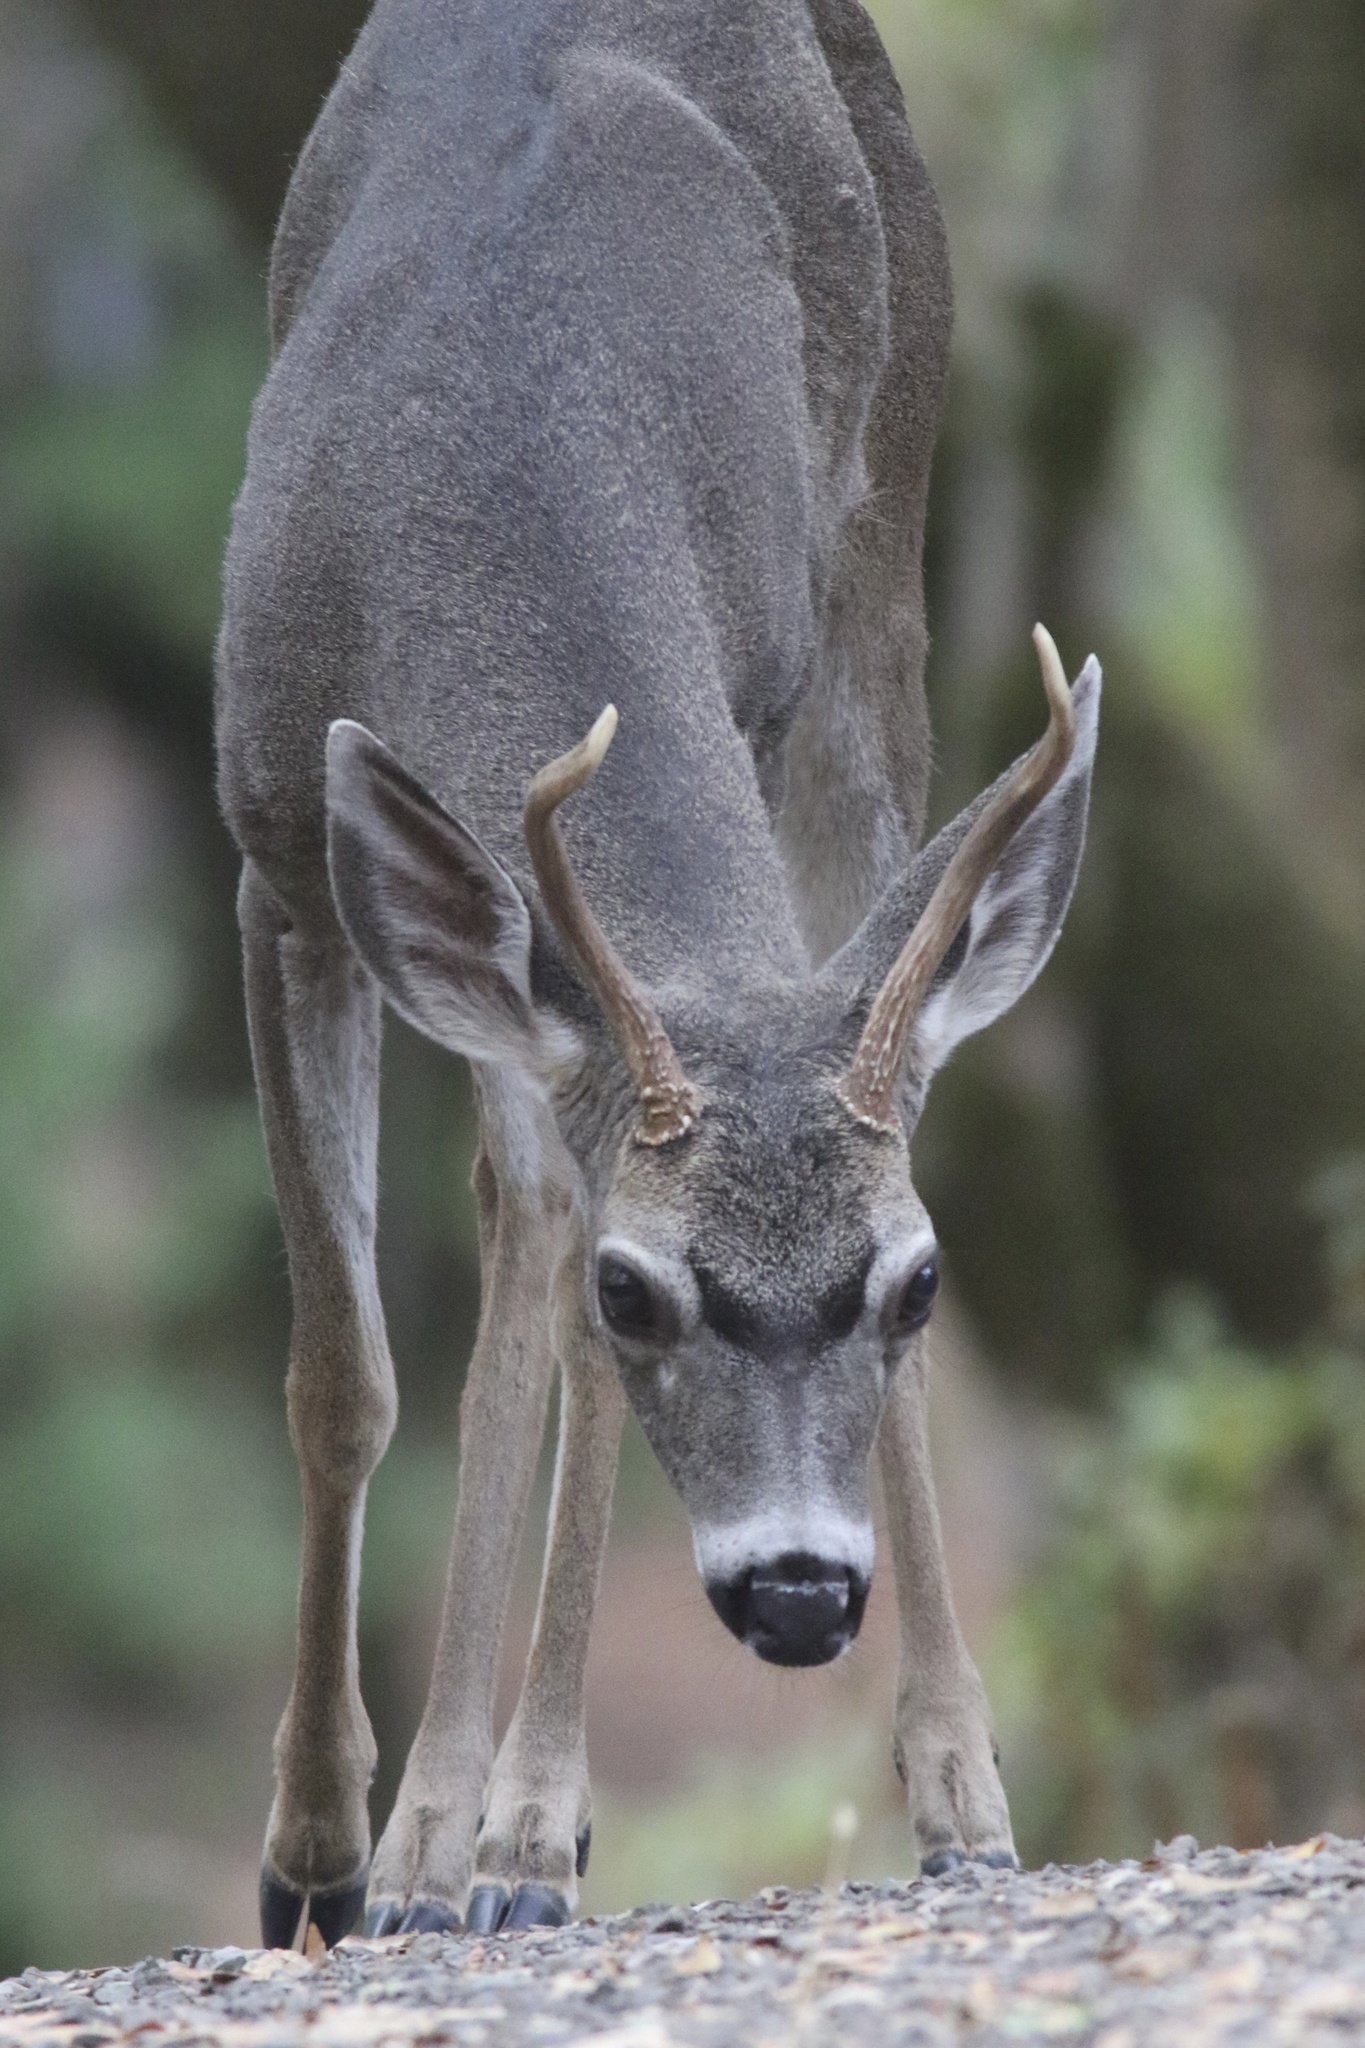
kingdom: Animalia
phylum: Chordata
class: Mammalia
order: Artiodactyla
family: Cervidae
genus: Odocoileus
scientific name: Odocoileus hemionus
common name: Mule deer
